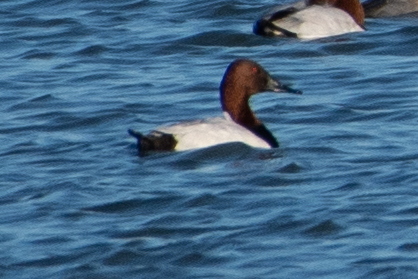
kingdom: Animalia
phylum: Chordata
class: Aves
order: Anseriformes
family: Anatidae
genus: Aythya
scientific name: Aythya valisineria
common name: Canvasback
